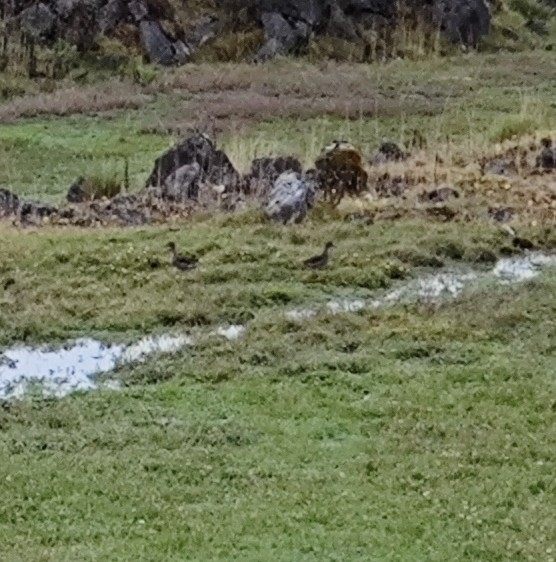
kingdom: Animalia
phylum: Chordata
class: Aves
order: Anseriformes
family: Anatidae
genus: Anas
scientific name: Anas andium
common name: Andean teal
